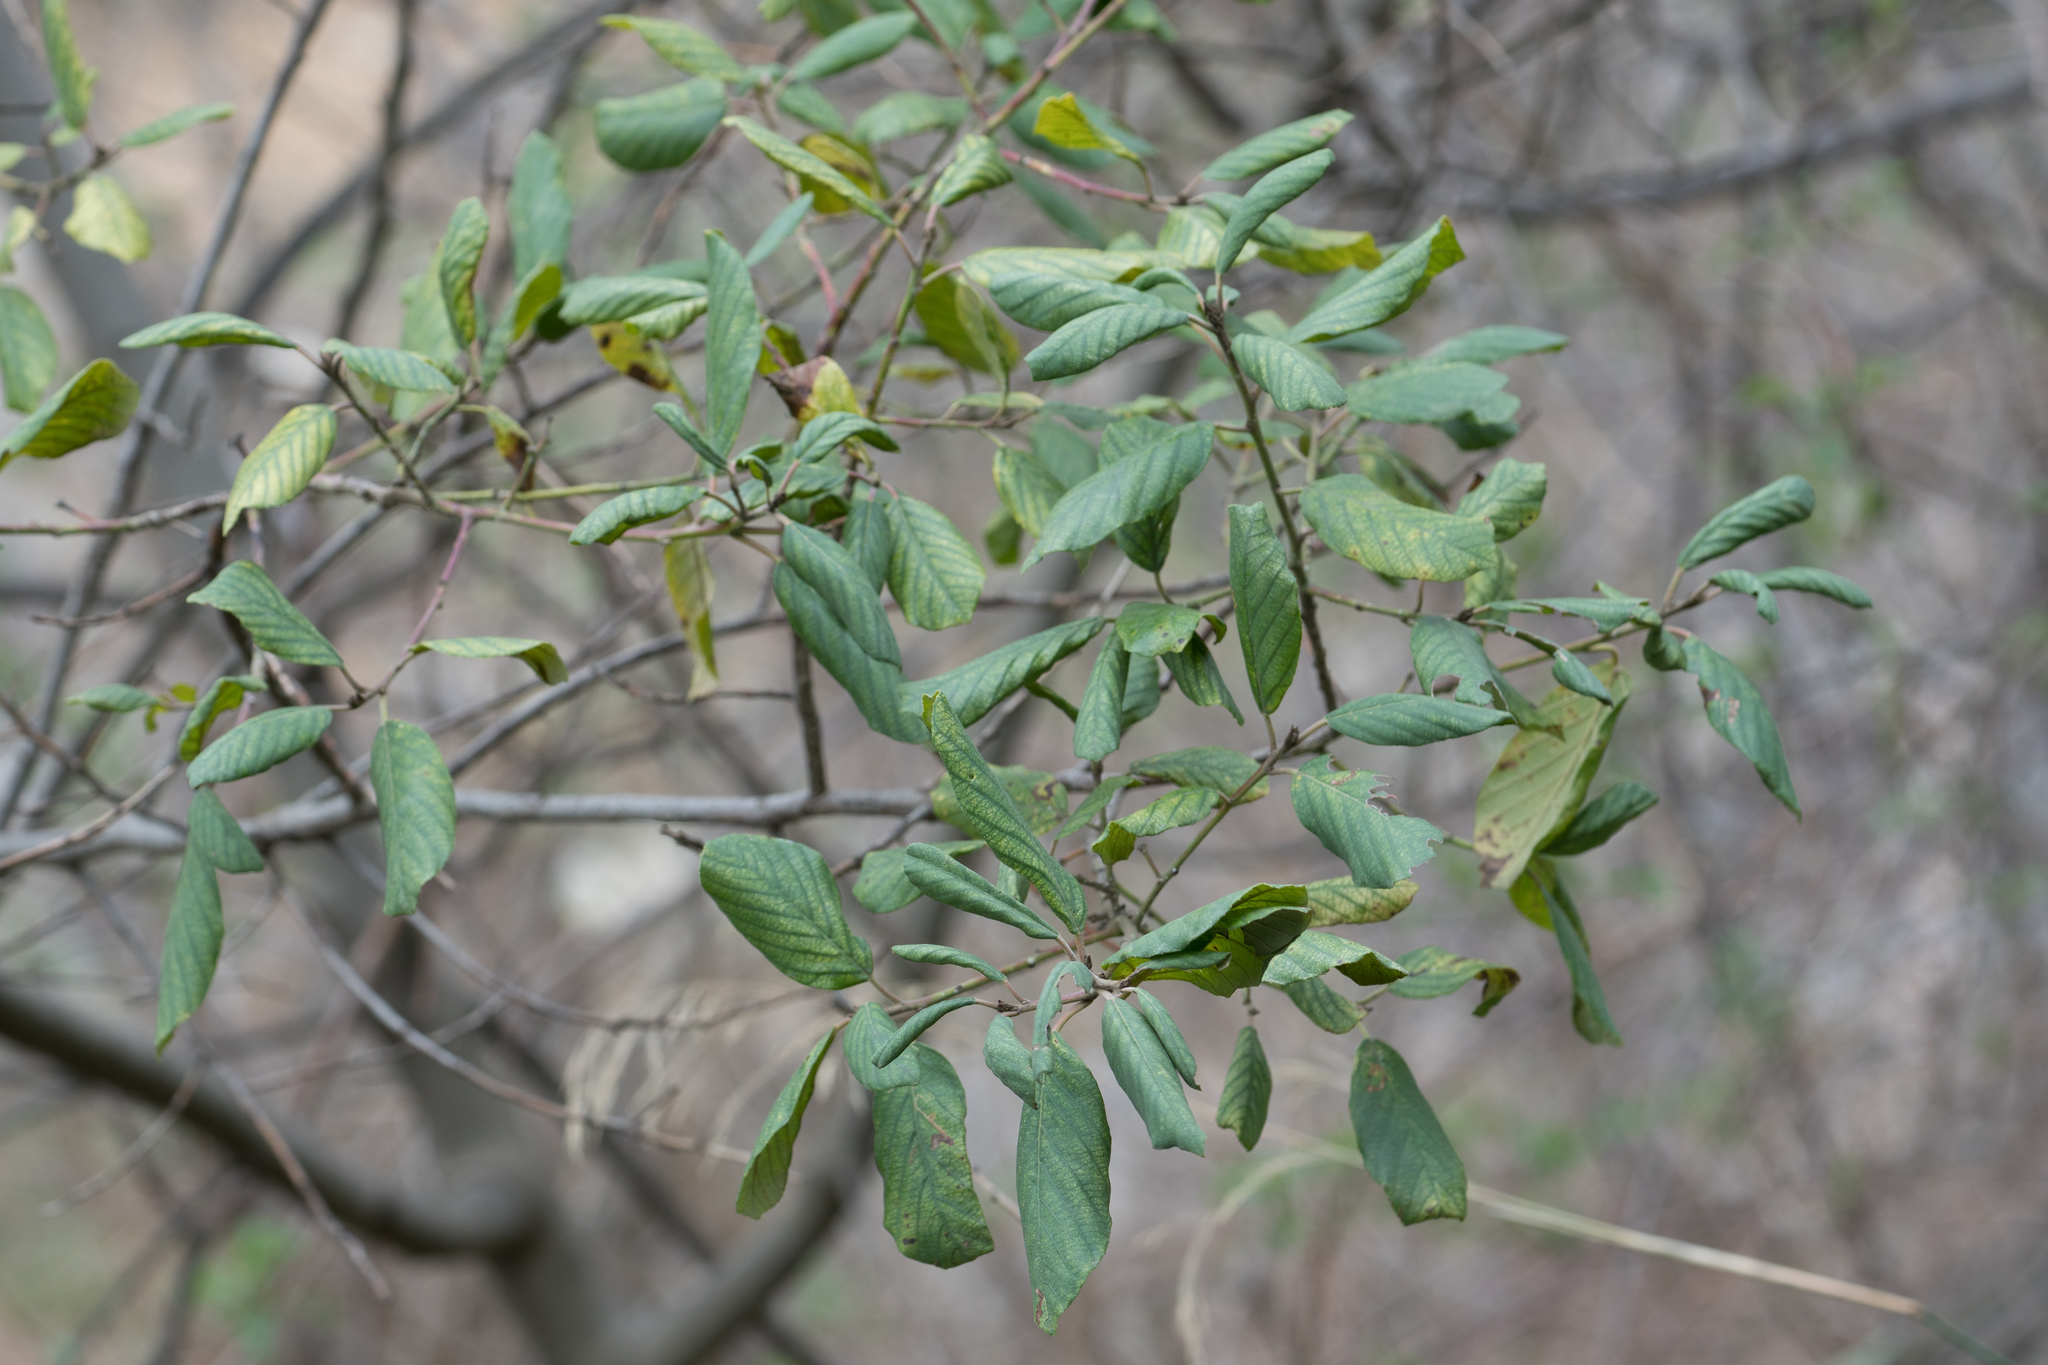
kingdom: Plantae
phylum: Tracheophyta
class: Magnoliopsida
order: Rosales
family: Rhamnaceae
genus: Frangula
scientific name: Frangula californica
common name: California buckthorn
